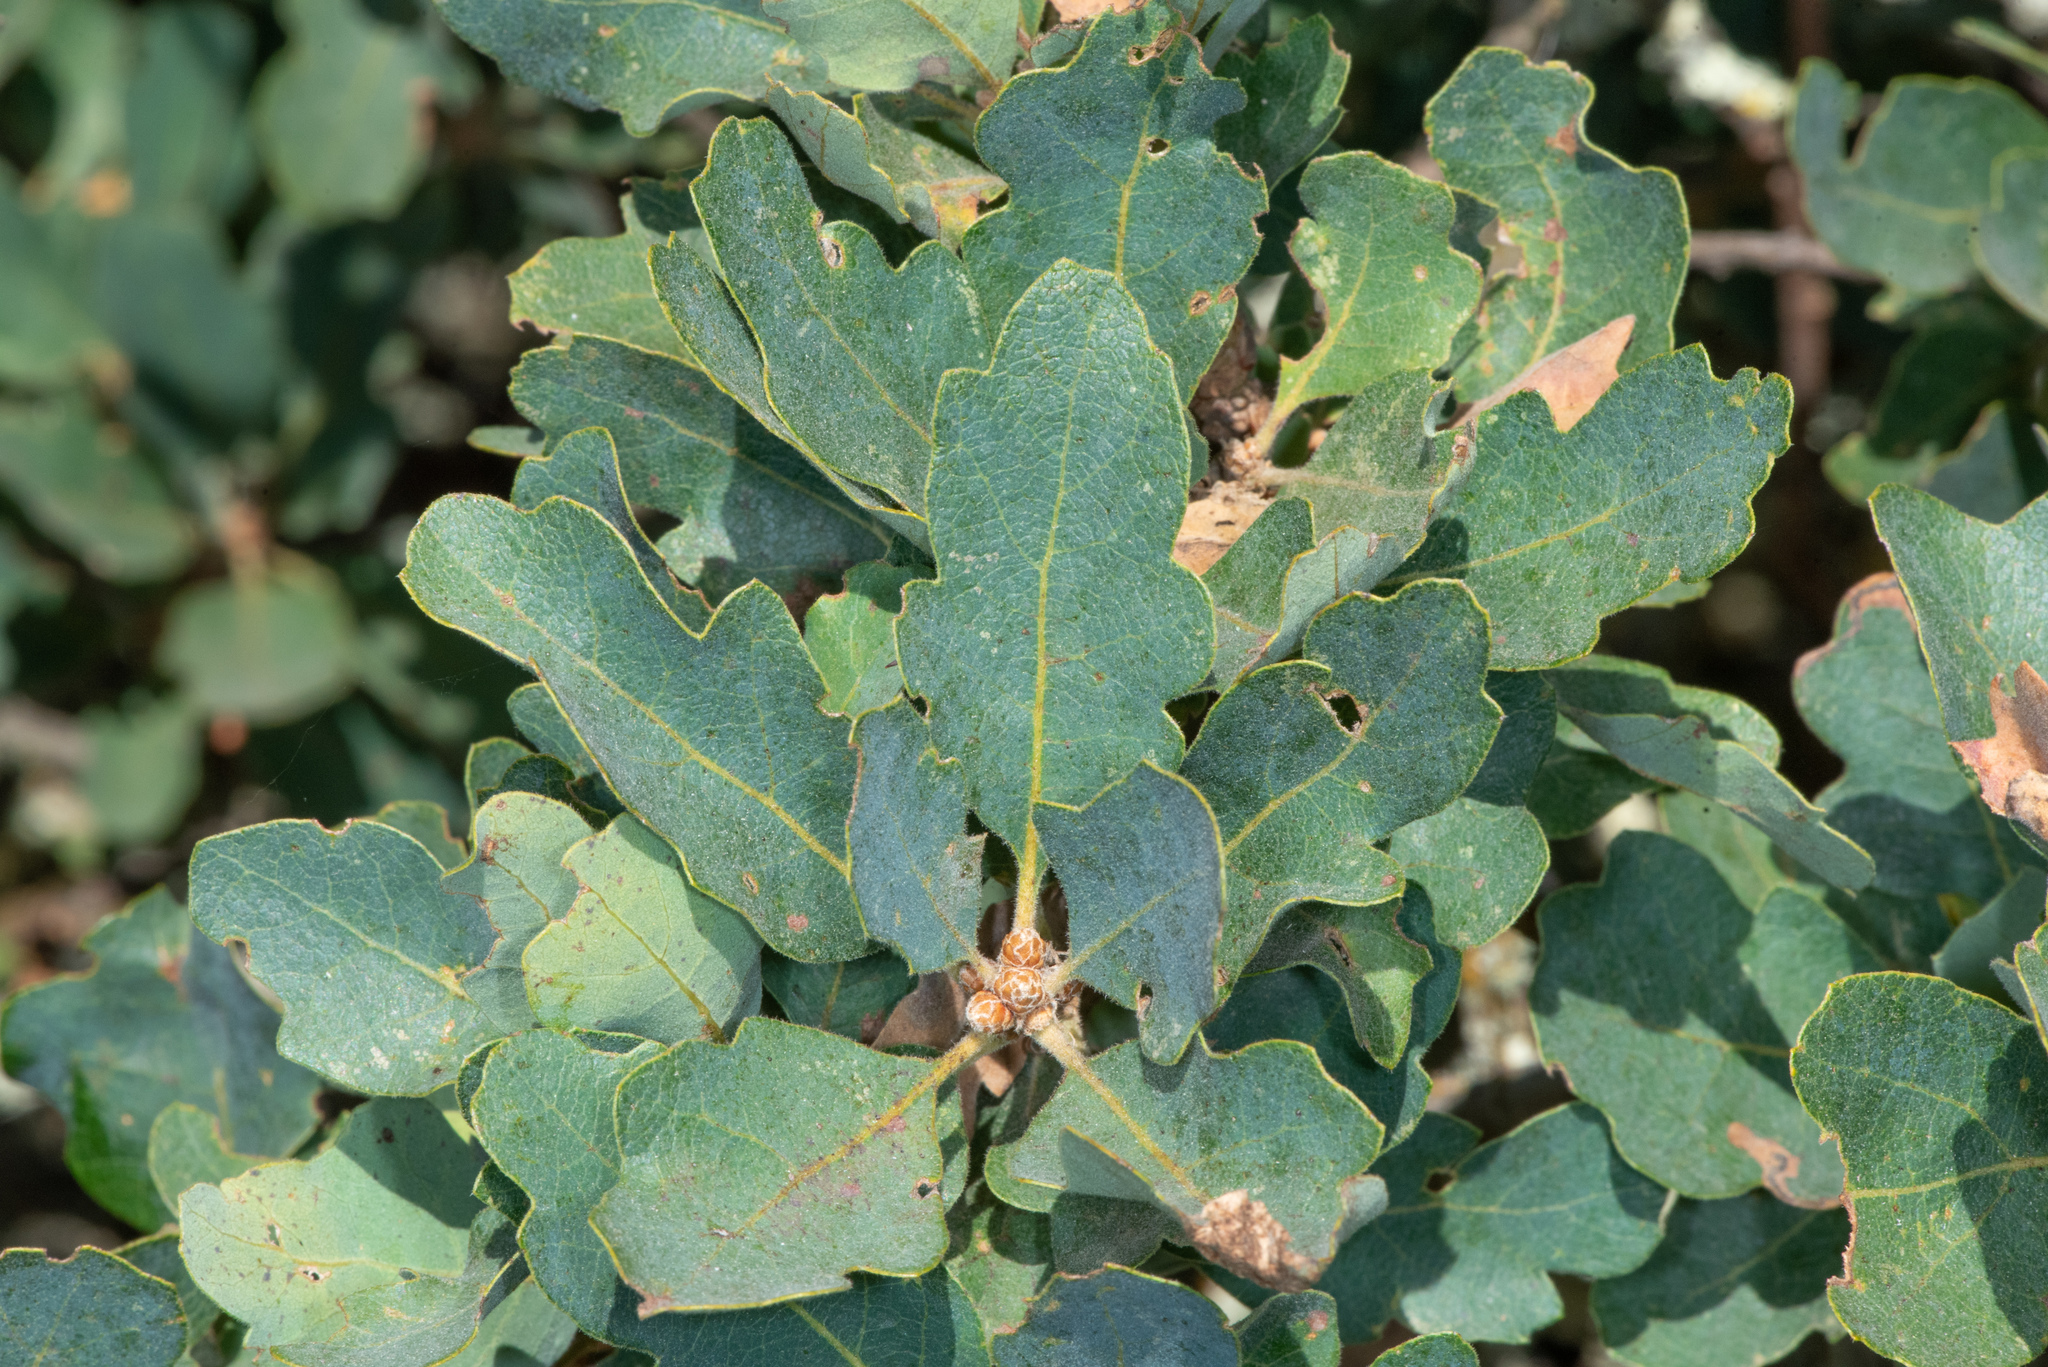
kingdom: Plantae
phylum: Tracheophyta
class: Magnoliopsida
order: Fagales
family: Fagaceae
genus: Quercus
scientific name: Quercus douglasii
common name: Blue oak
